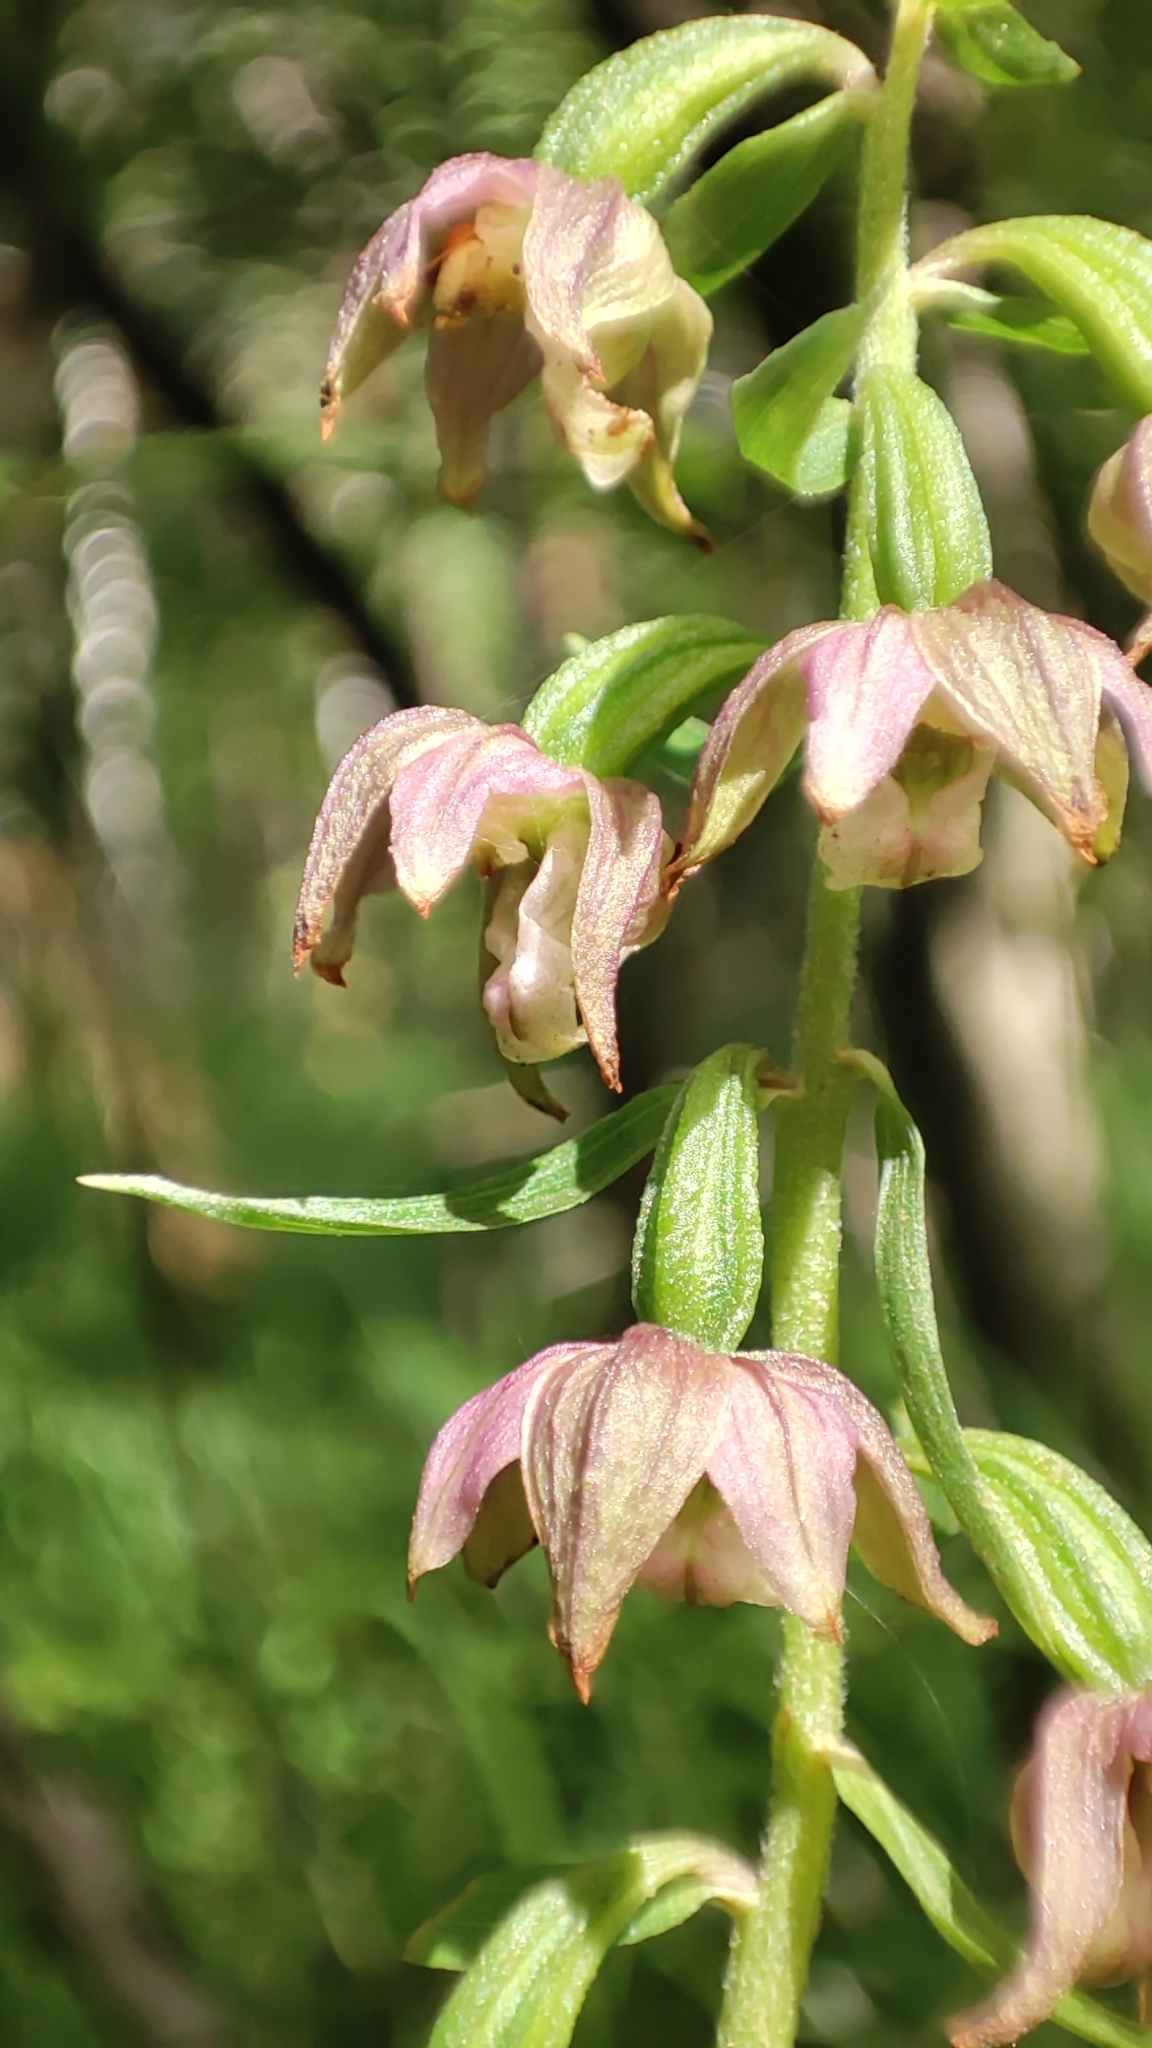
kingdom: Plantae
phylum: Tracheophyta
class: Liliopsida
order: Asparagales
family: Orchidaceae
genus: Epipactis
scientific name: Epipactis helleborine
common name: Broad-leaved helleborine
